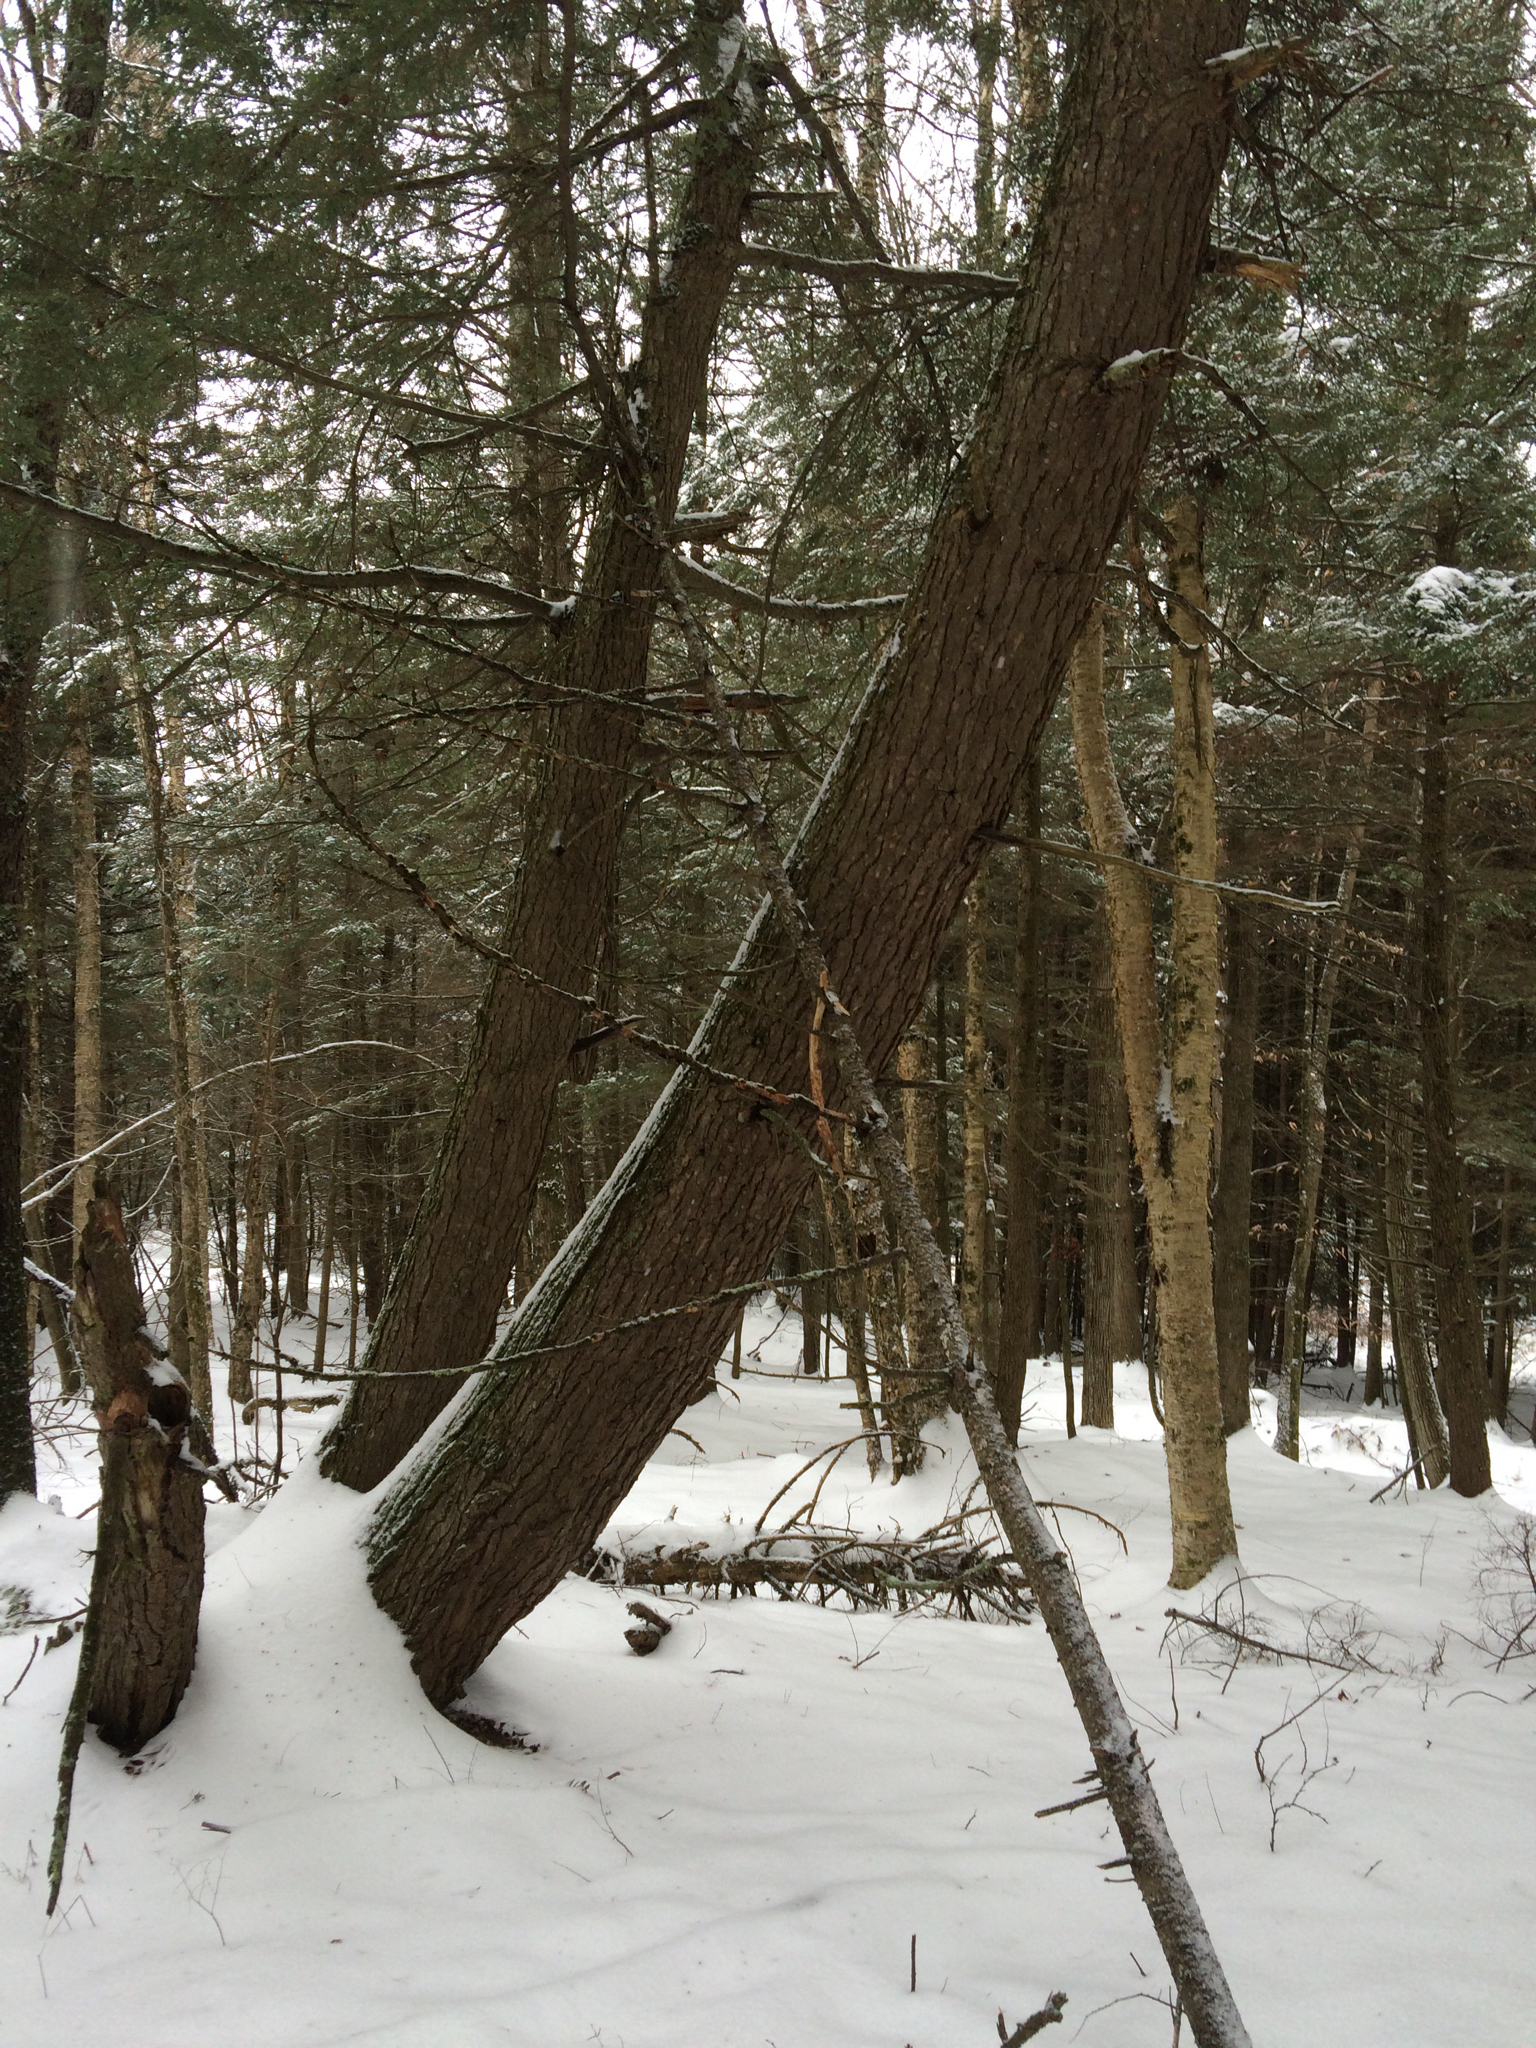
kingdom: Plantae
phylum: Tracheophyta
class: Pinopsida
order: Pinales
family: Pinaceae
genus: Tsuga
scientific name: Tsuga canadensis
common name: Eastern hemlock
